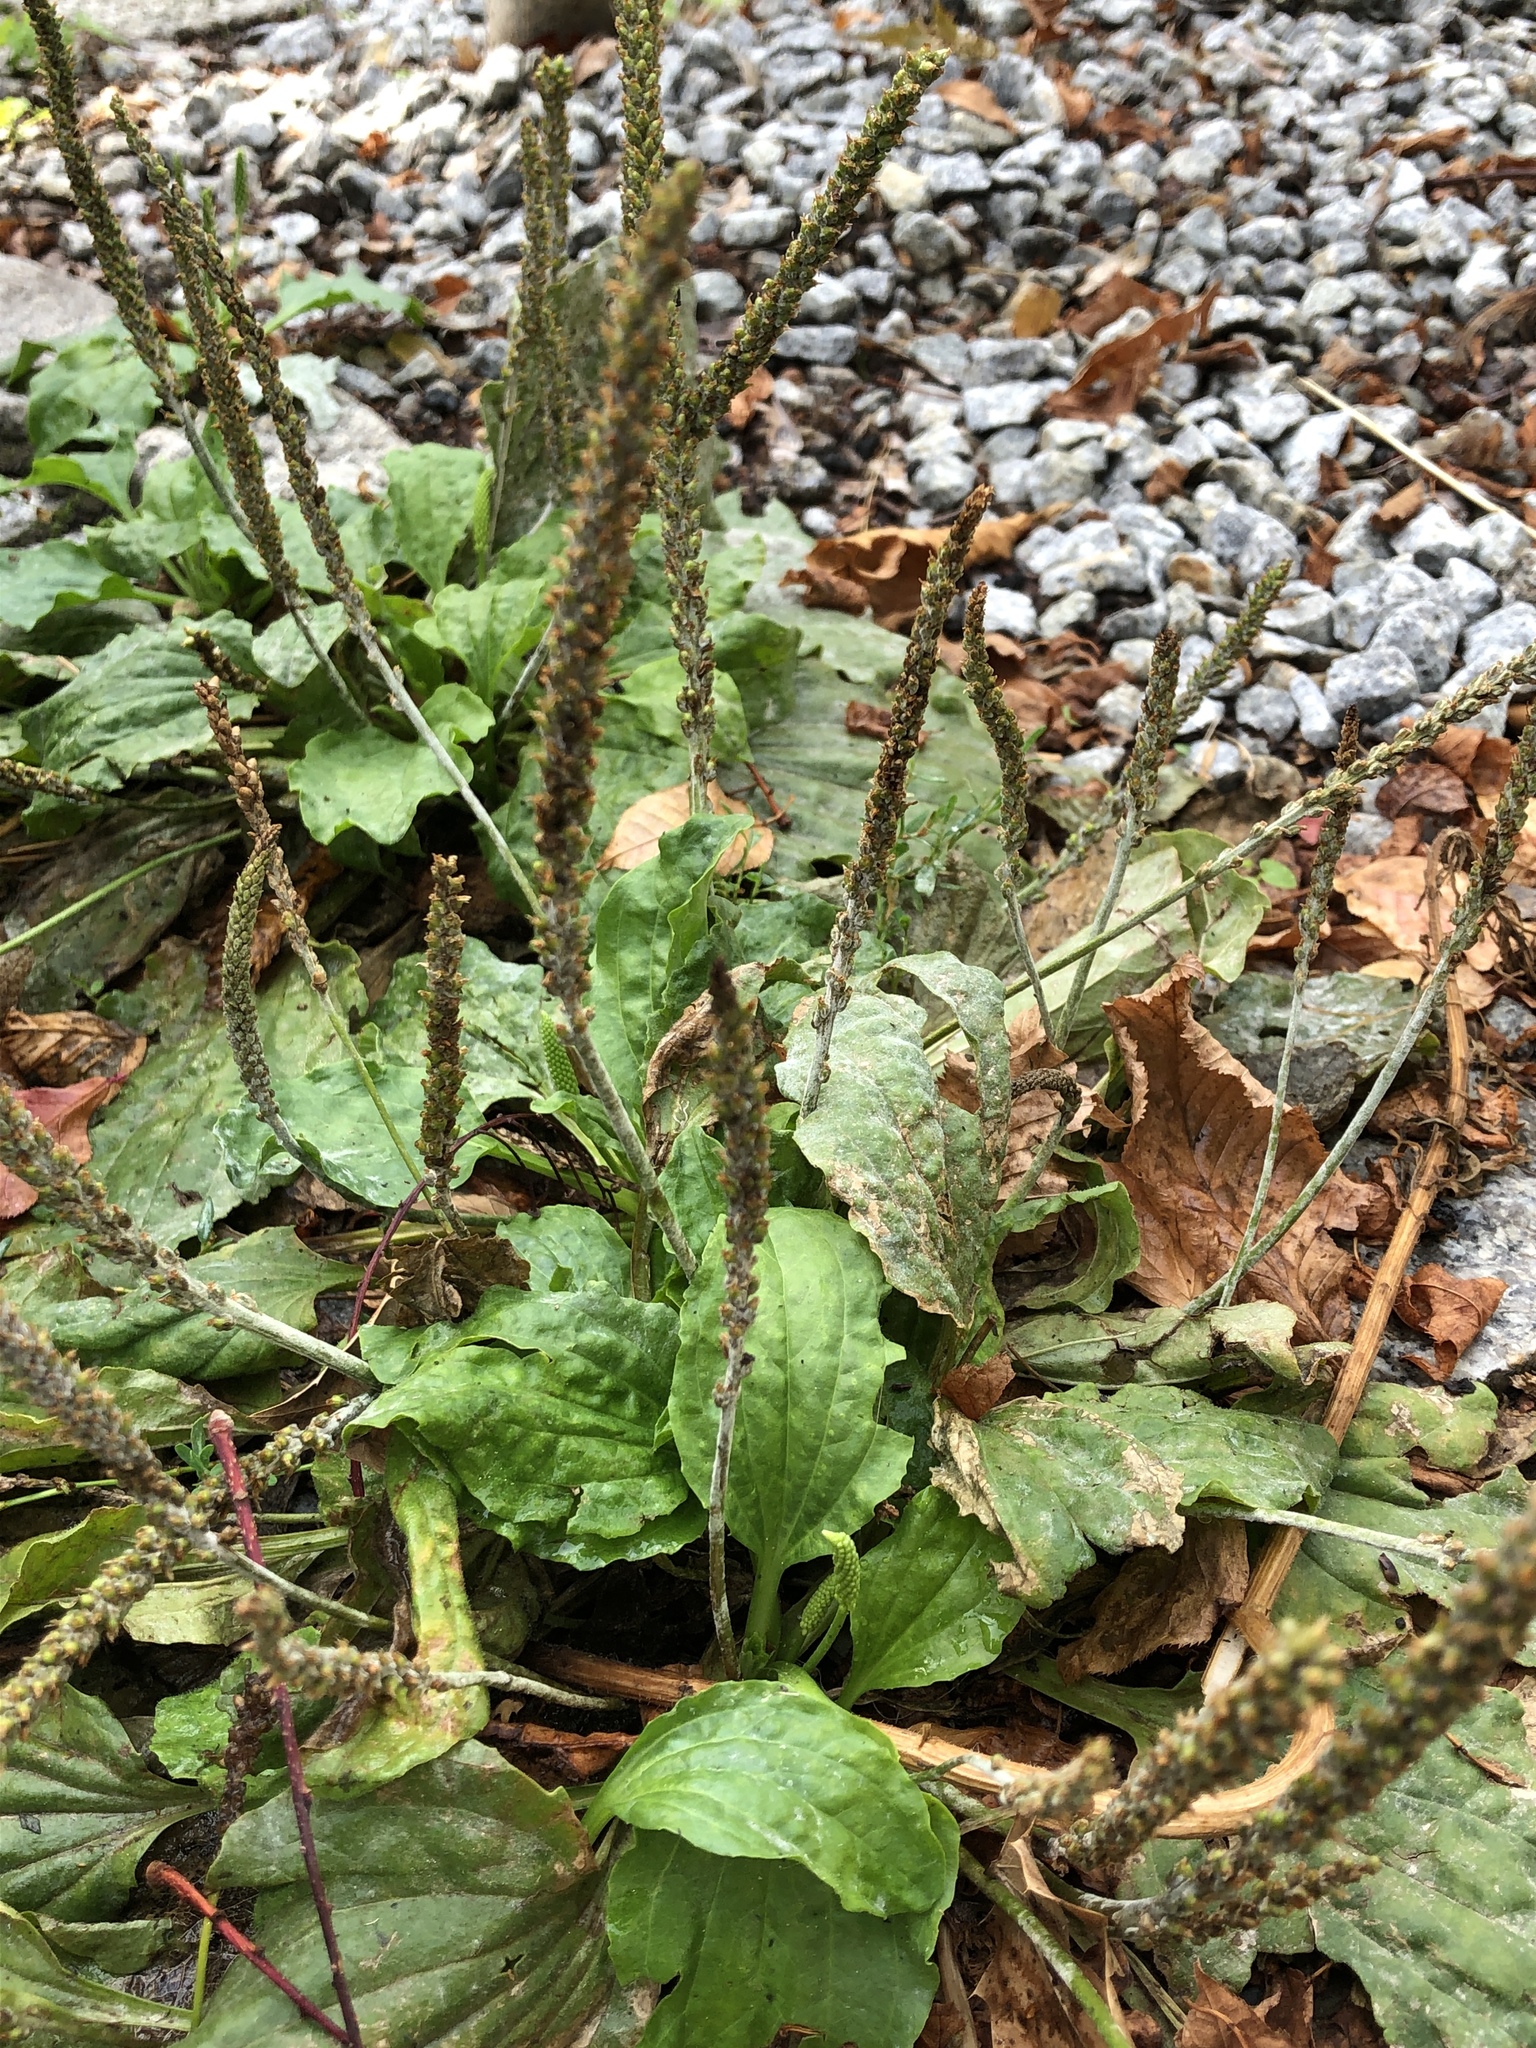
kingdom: Plantae
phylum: Tracheophyta
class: Magnoliopsida
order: Lamiales
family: Plantaginaceae
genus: Plantago
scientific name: Plantago major
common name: Common plantain
